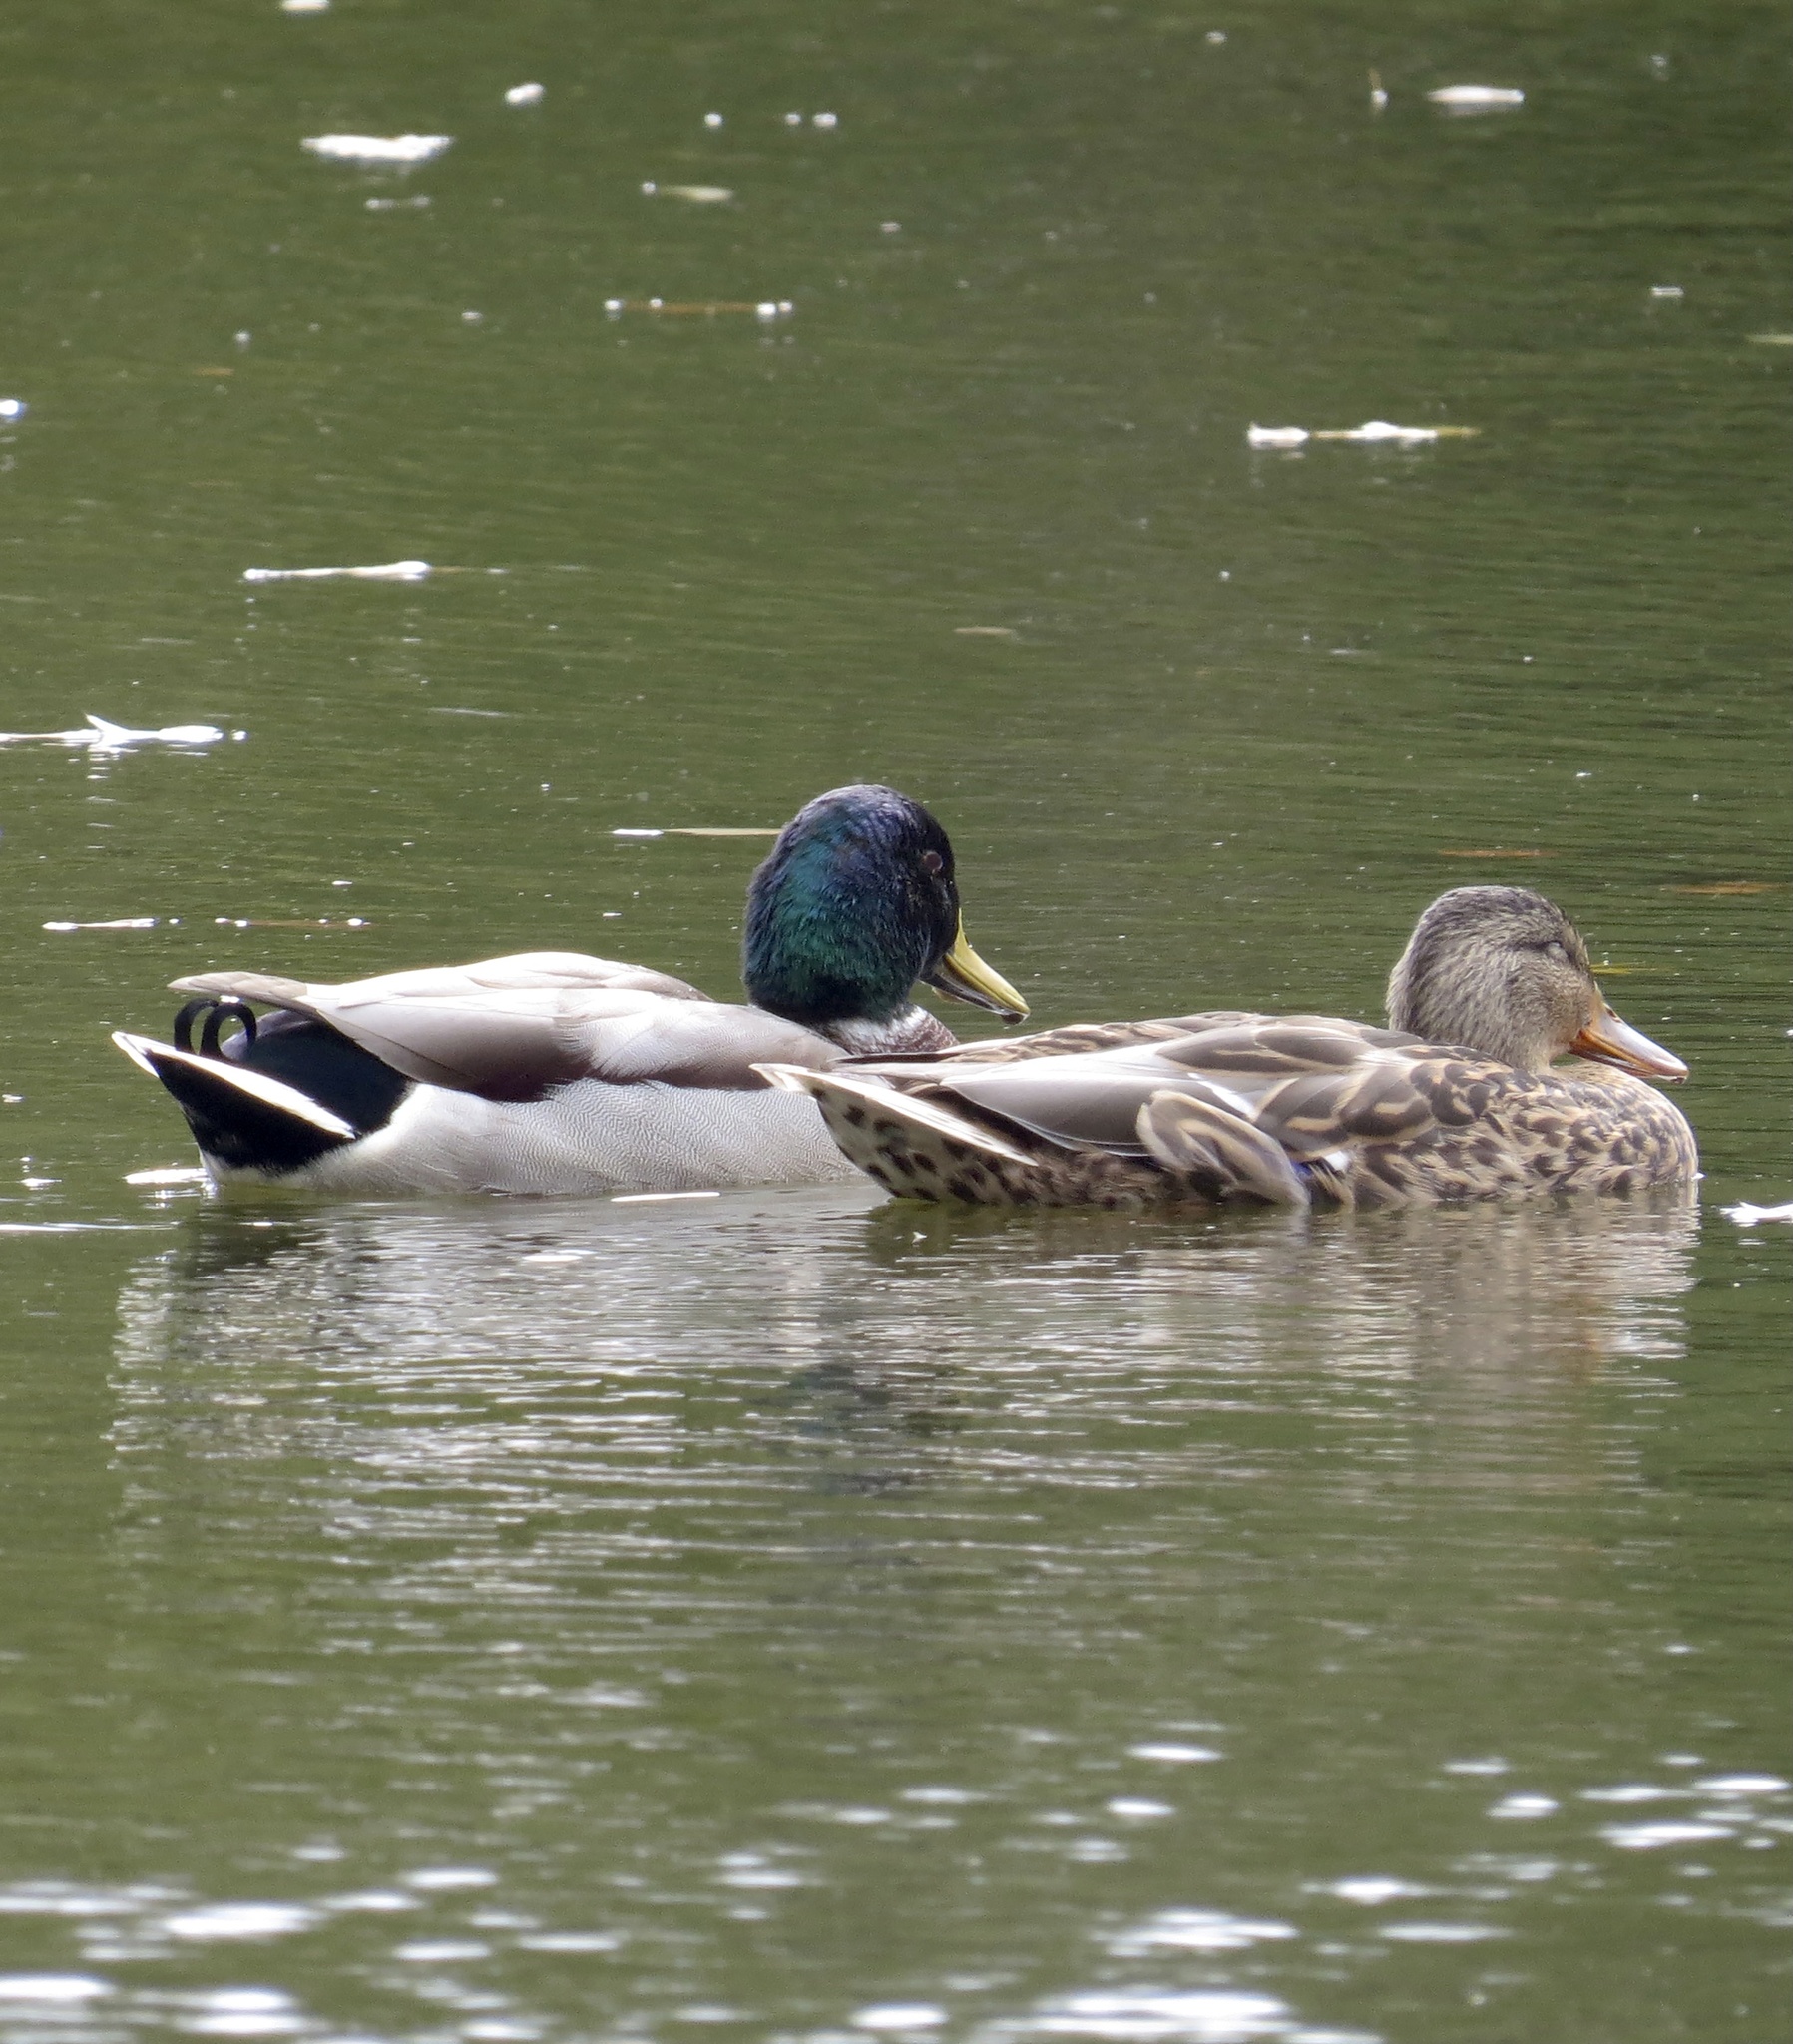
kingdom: Animalia
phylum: Chordata
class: Aves
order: Anseriformes
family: Anatidae
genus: Anas
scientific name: Anas platyrhynchos
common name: Mallard
